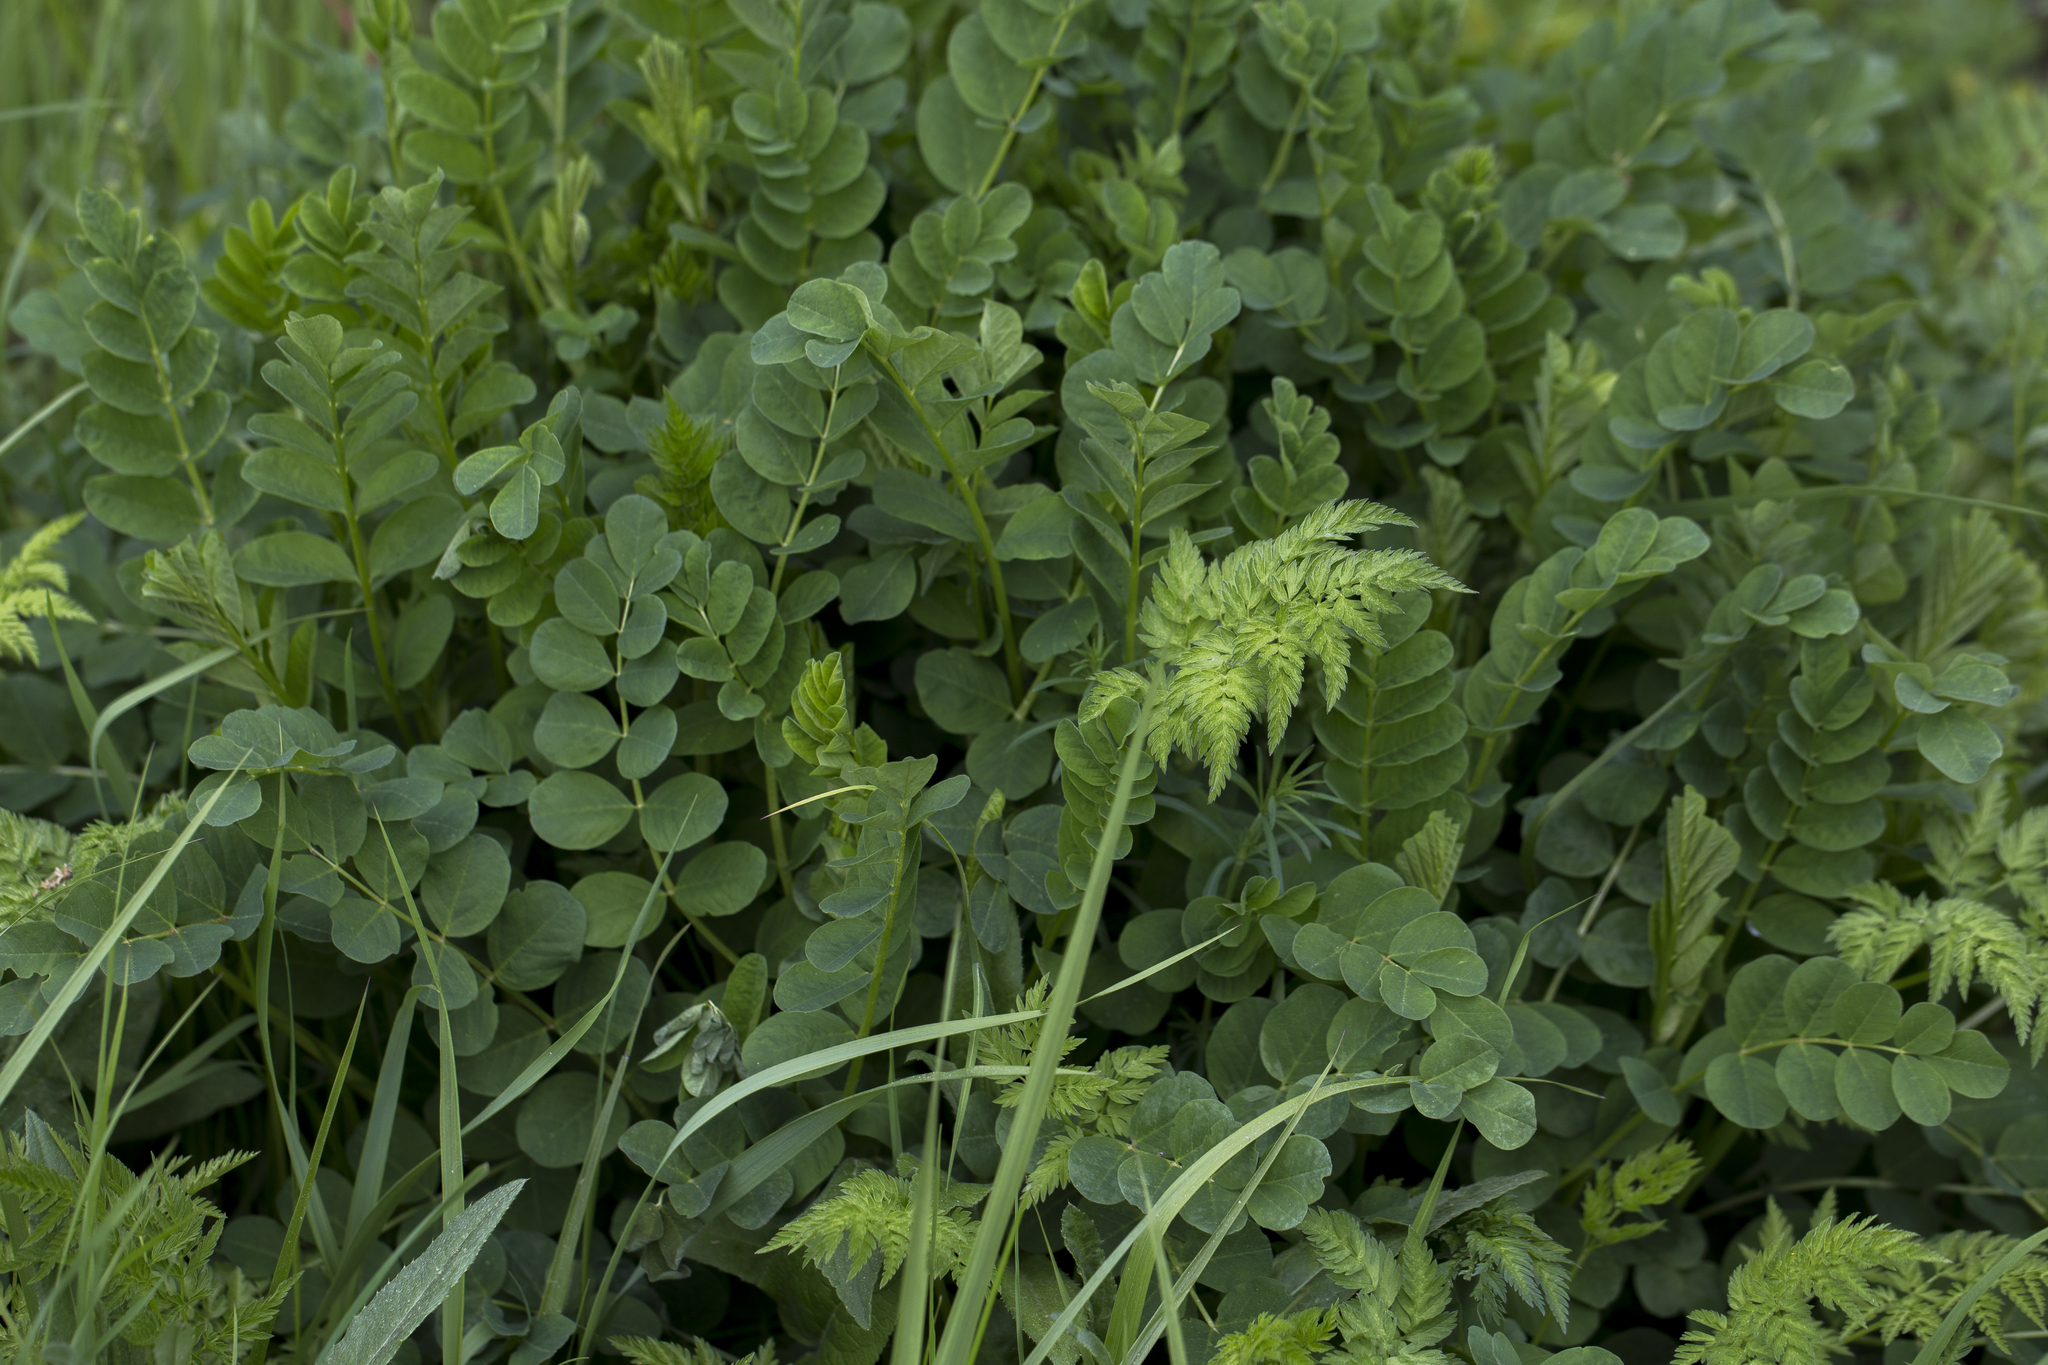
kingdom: Plantae
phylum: Tracheophyta
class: Magnoliopsida
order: Fabales
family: Fabaceae
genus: Astragalus
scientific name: Astragalus glycyphyllos
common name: Wild liquorice
